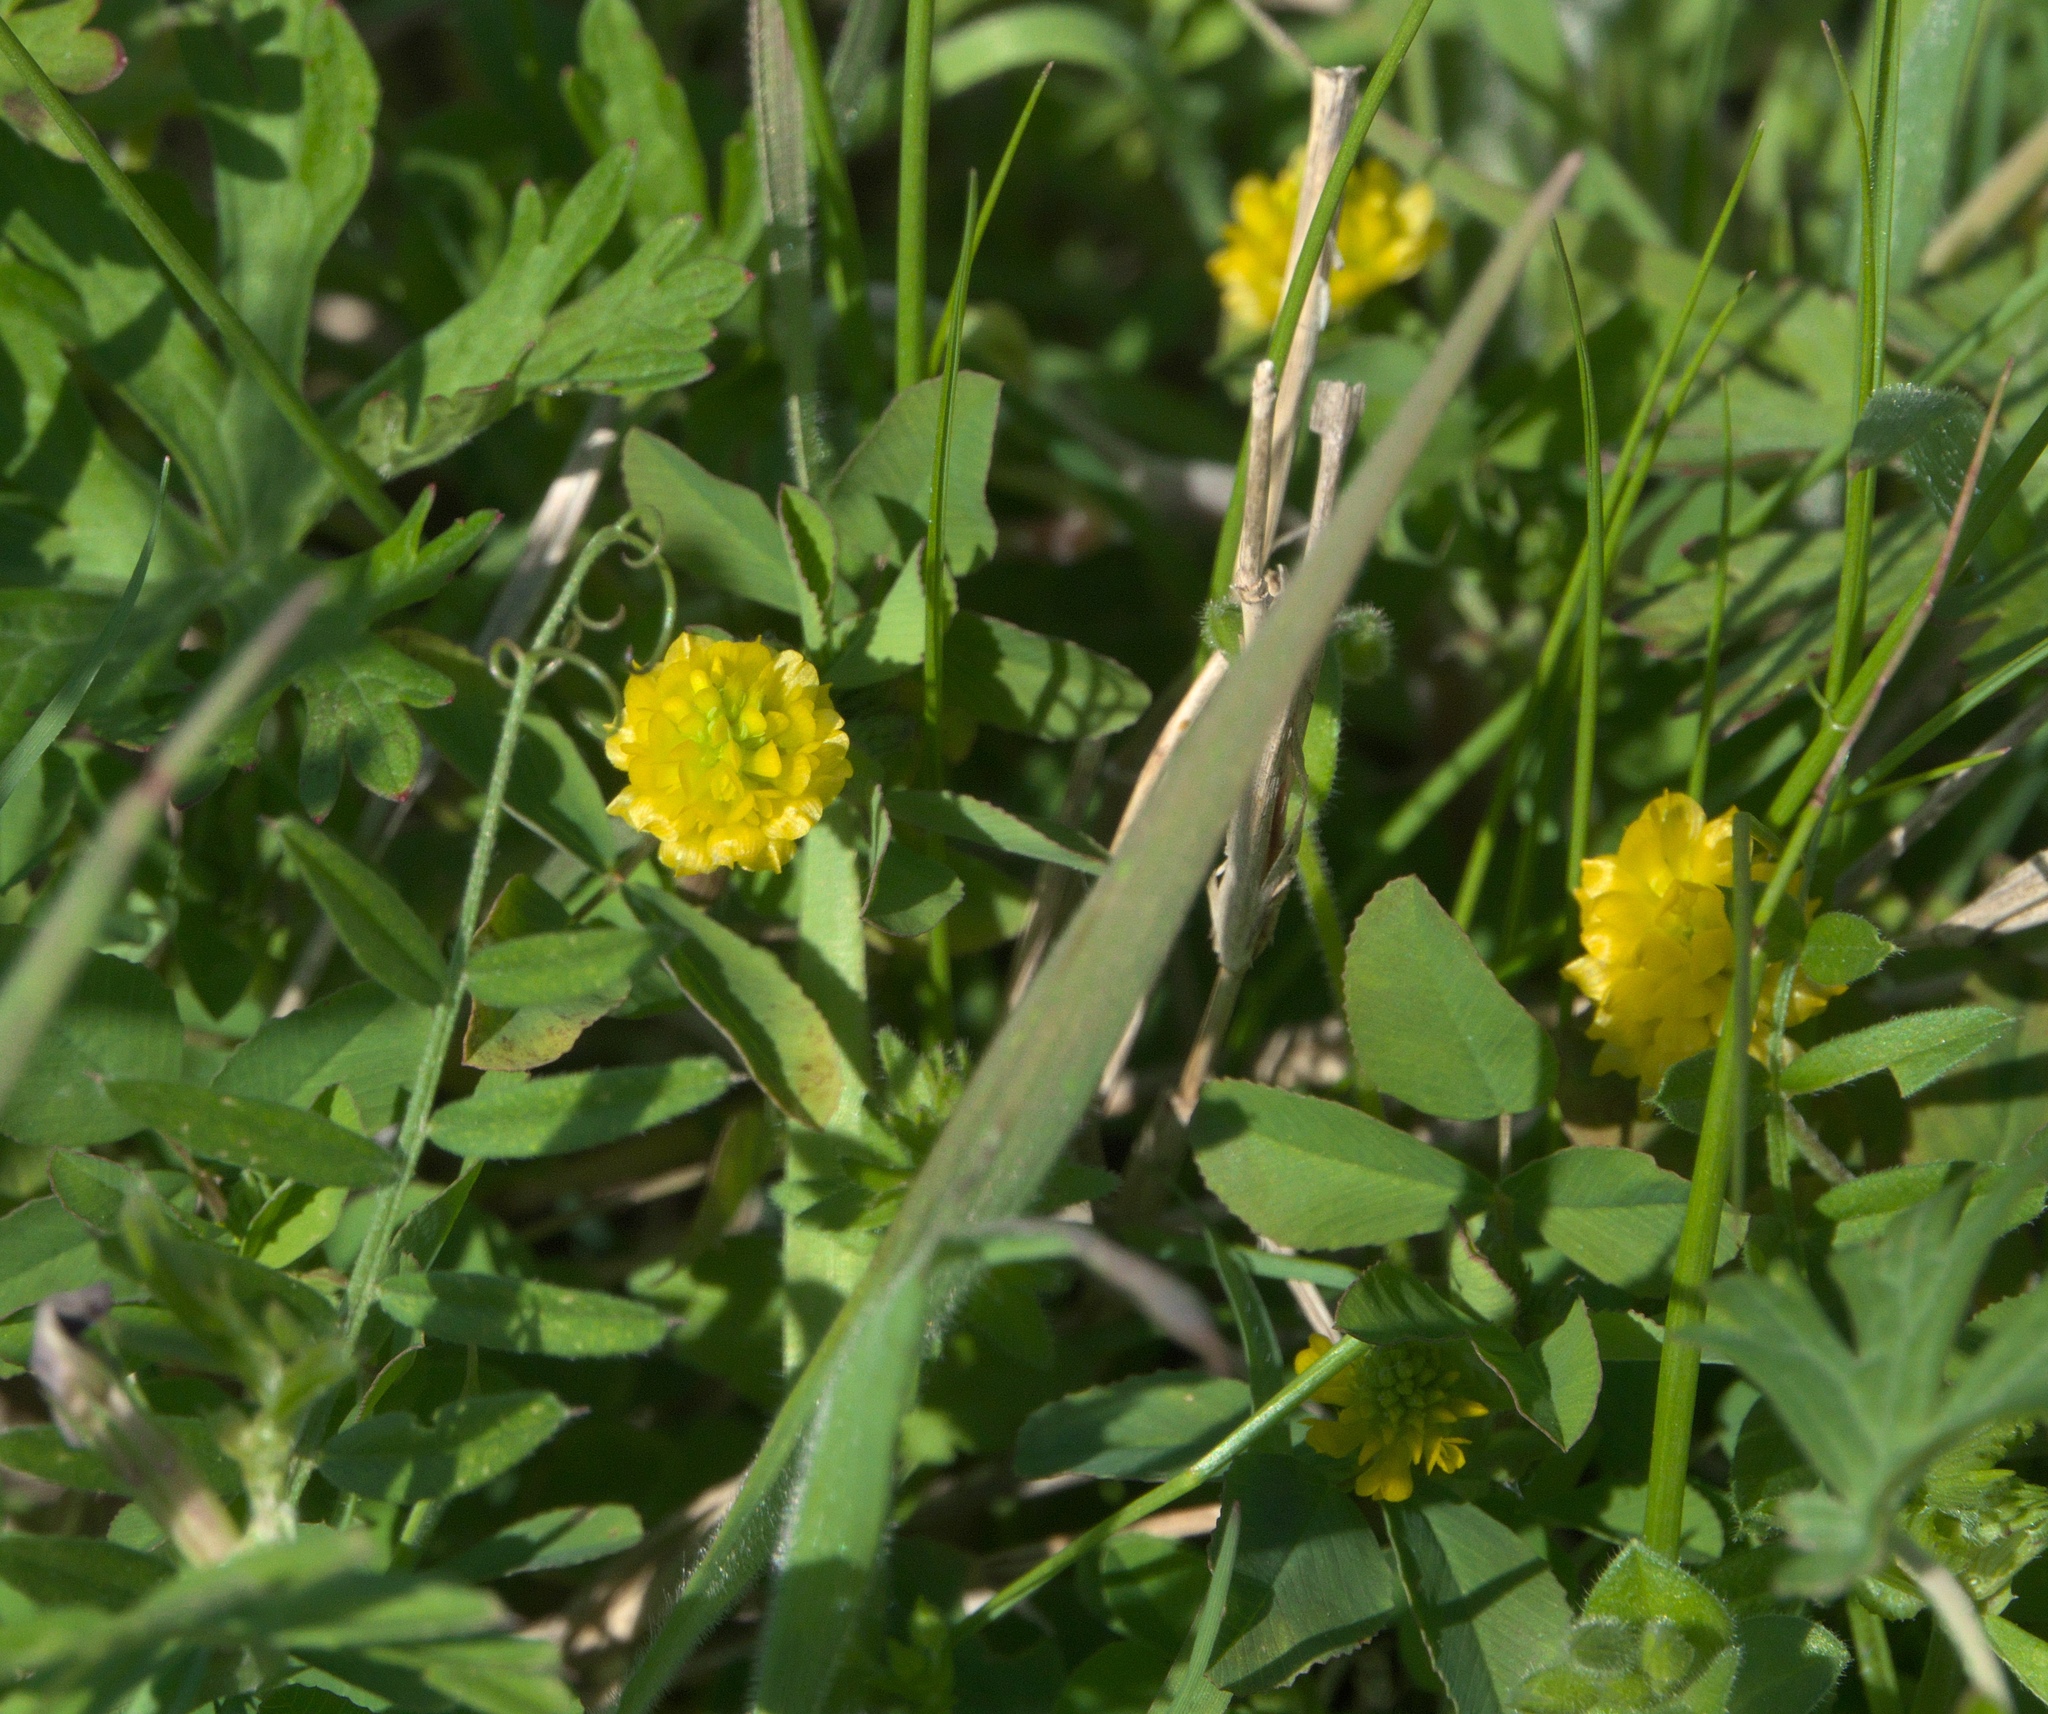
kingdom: Plantae
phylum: Tracheophyta
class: Magnoliopsida
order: Fabales
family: Fabaceae
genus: Trifolium
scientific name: Trifolium campestre
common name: Field clover
